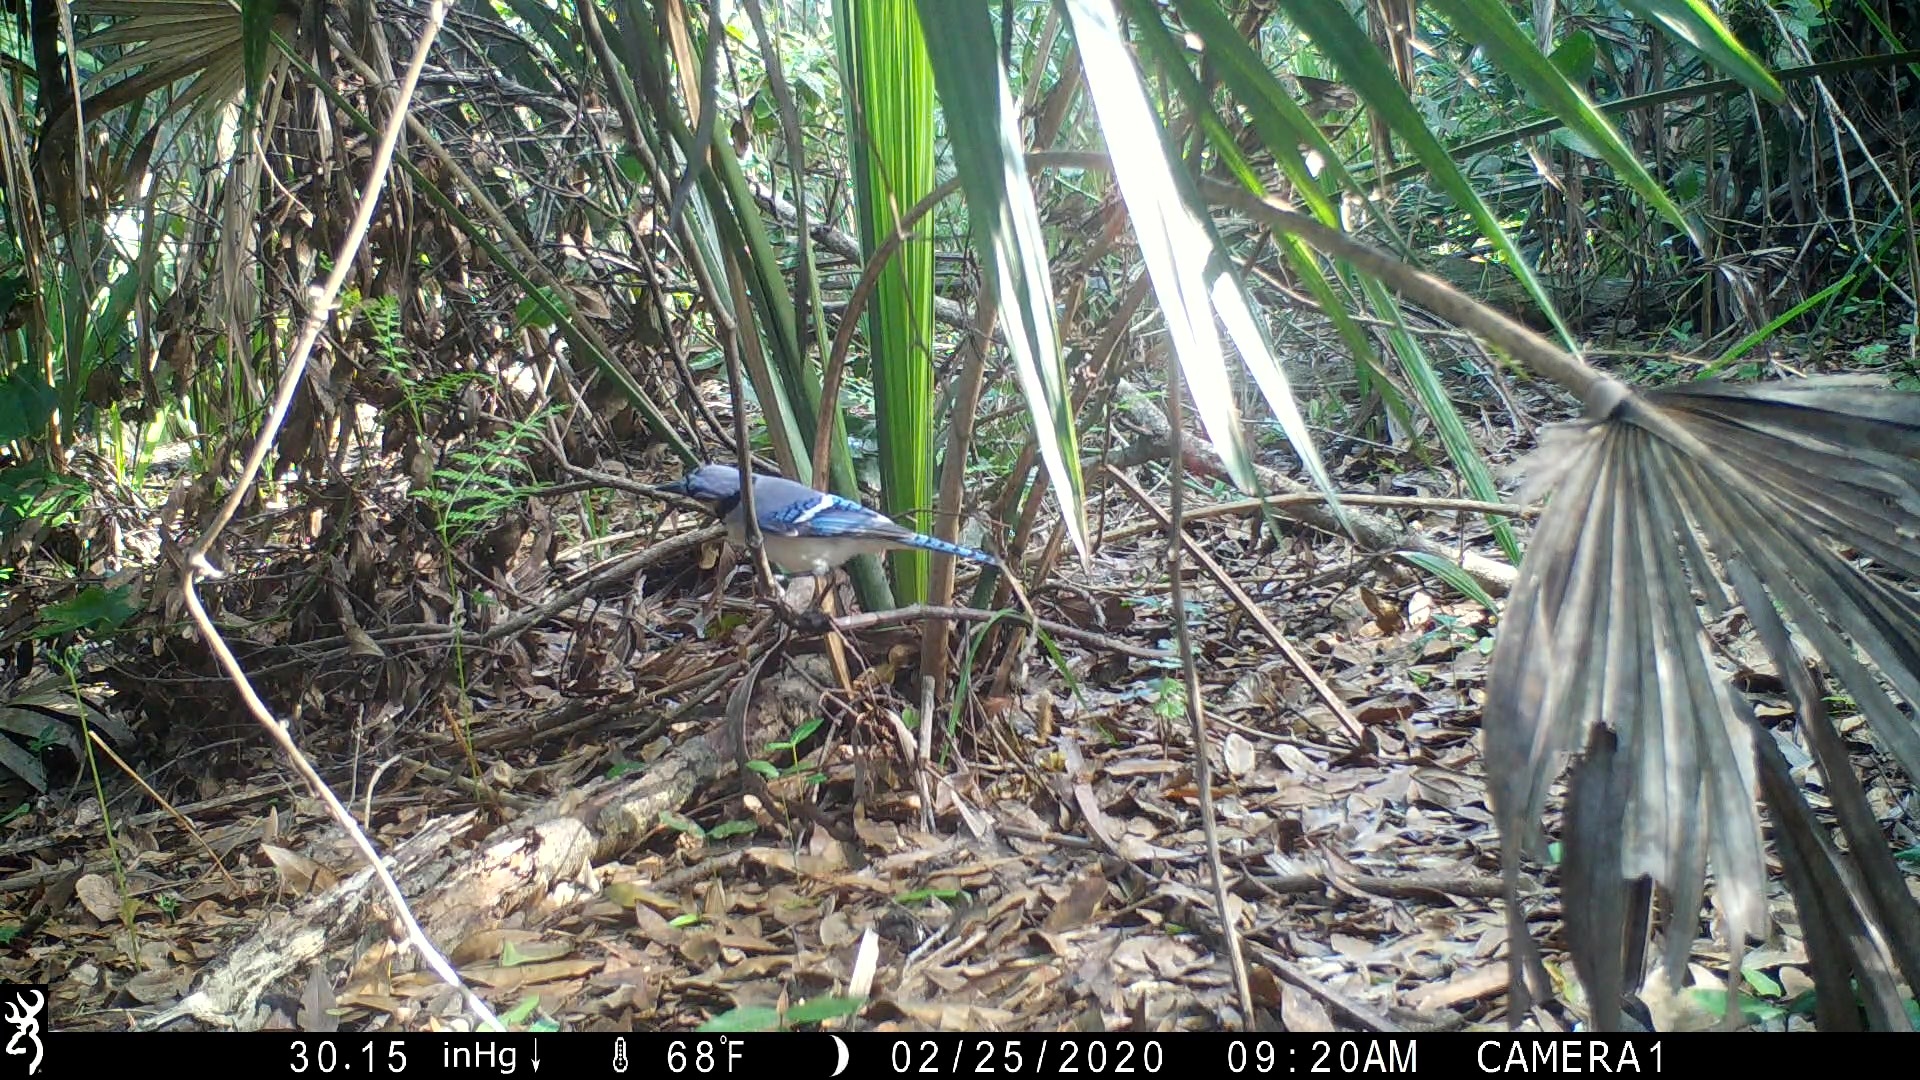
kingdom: Animalia
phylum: Chordata
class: Aves
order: Passeriformes
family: Corvidae
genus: Cyanocitta
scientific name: Cyanocitta cristata
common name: Blue jay
